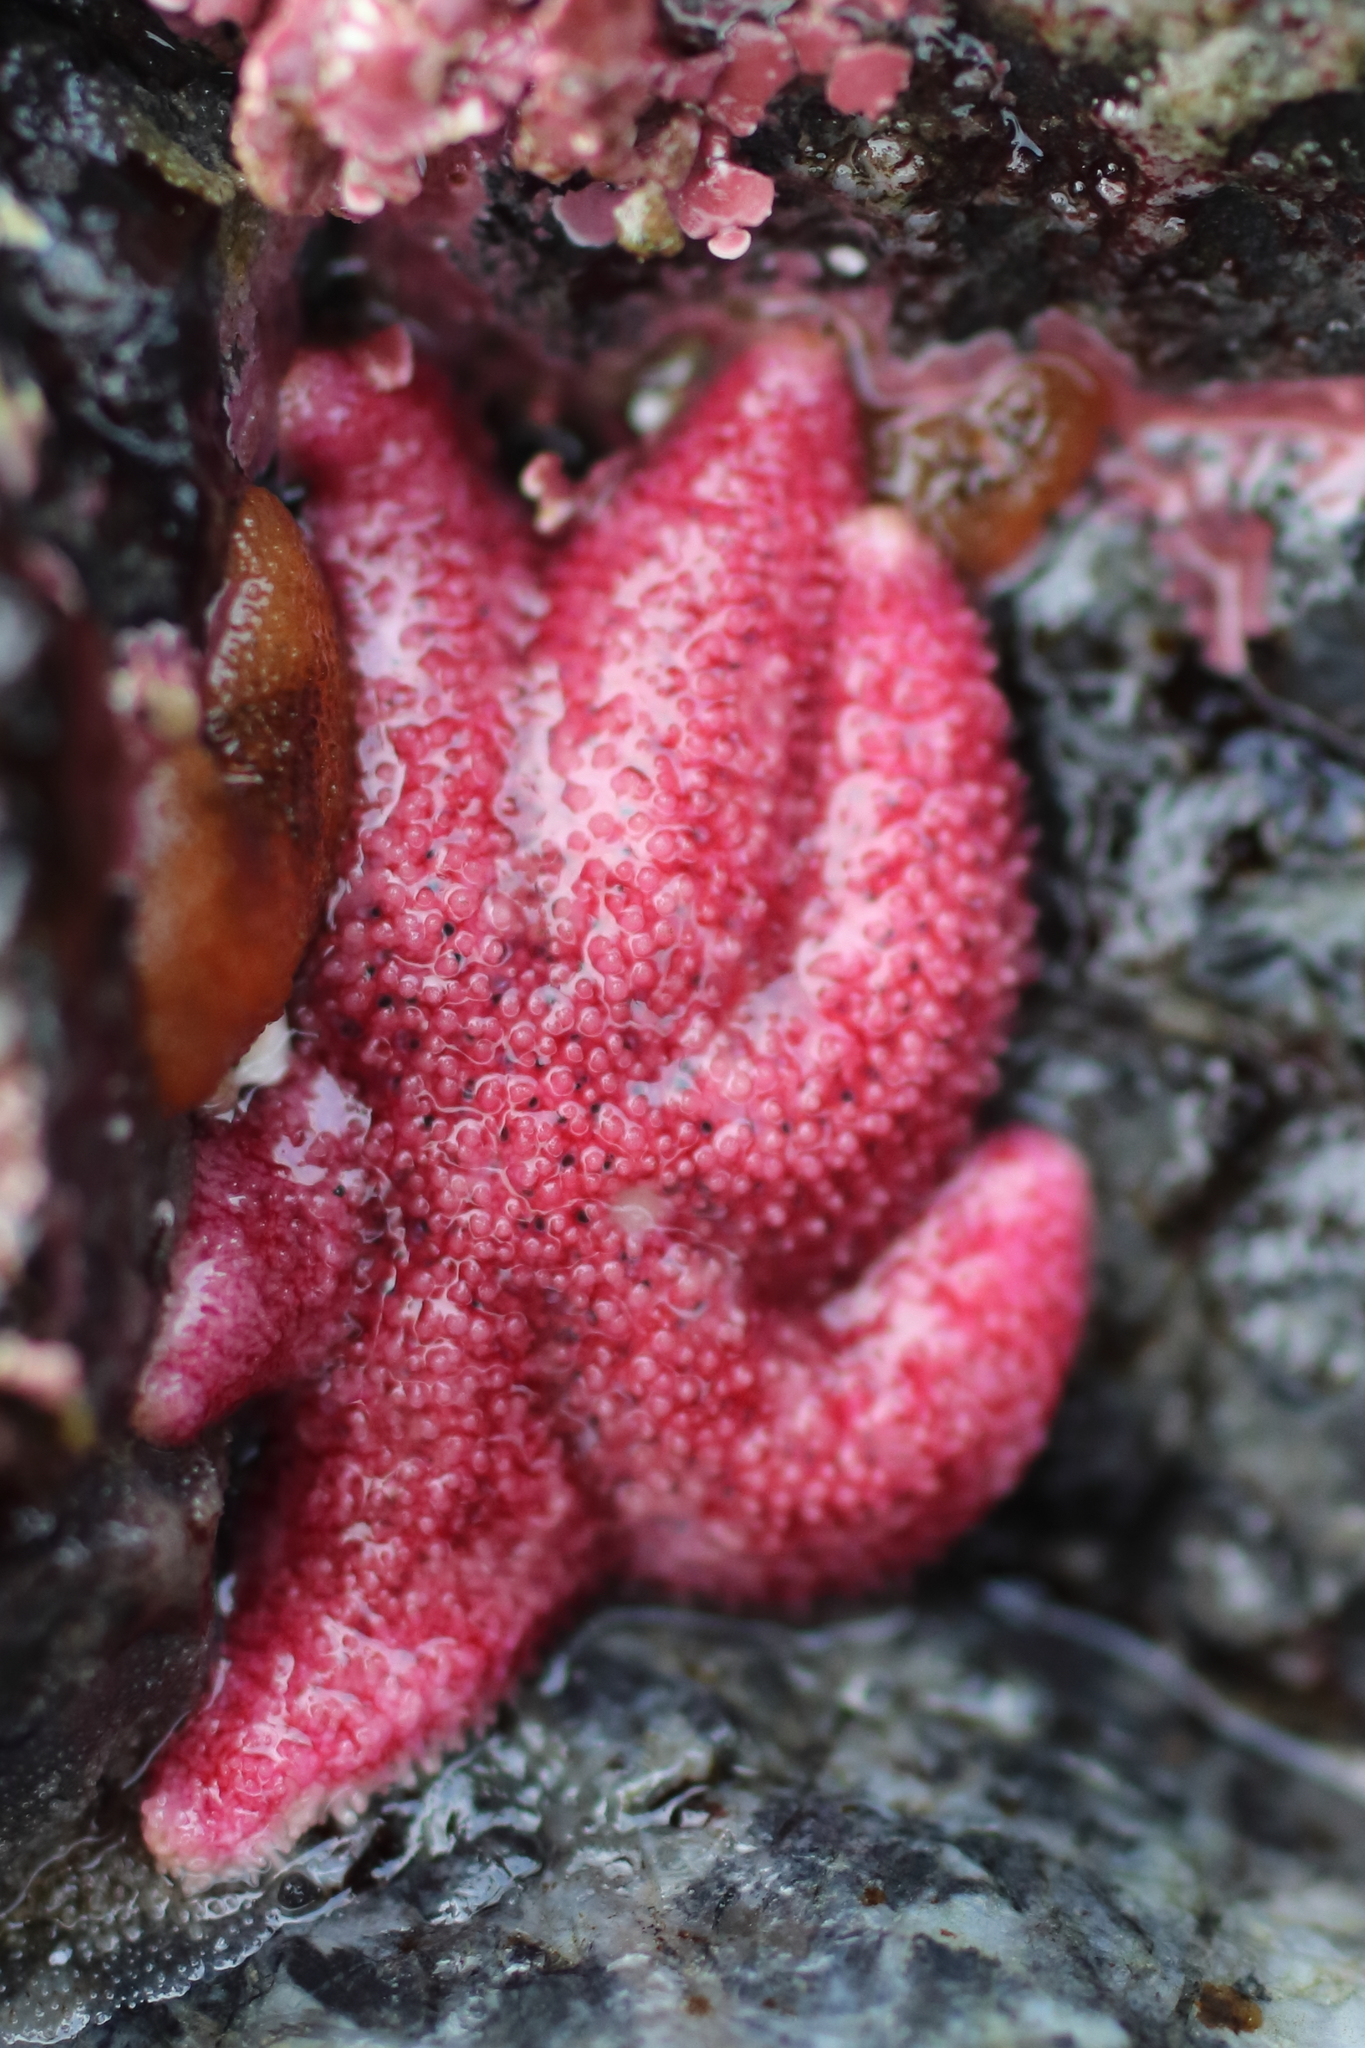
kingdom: Animalia
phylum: Echinodermata
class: Asteroidea
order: Forcipulatida
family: Asteriidae
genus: Leptasterias
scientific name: Leptasterias hexactis
